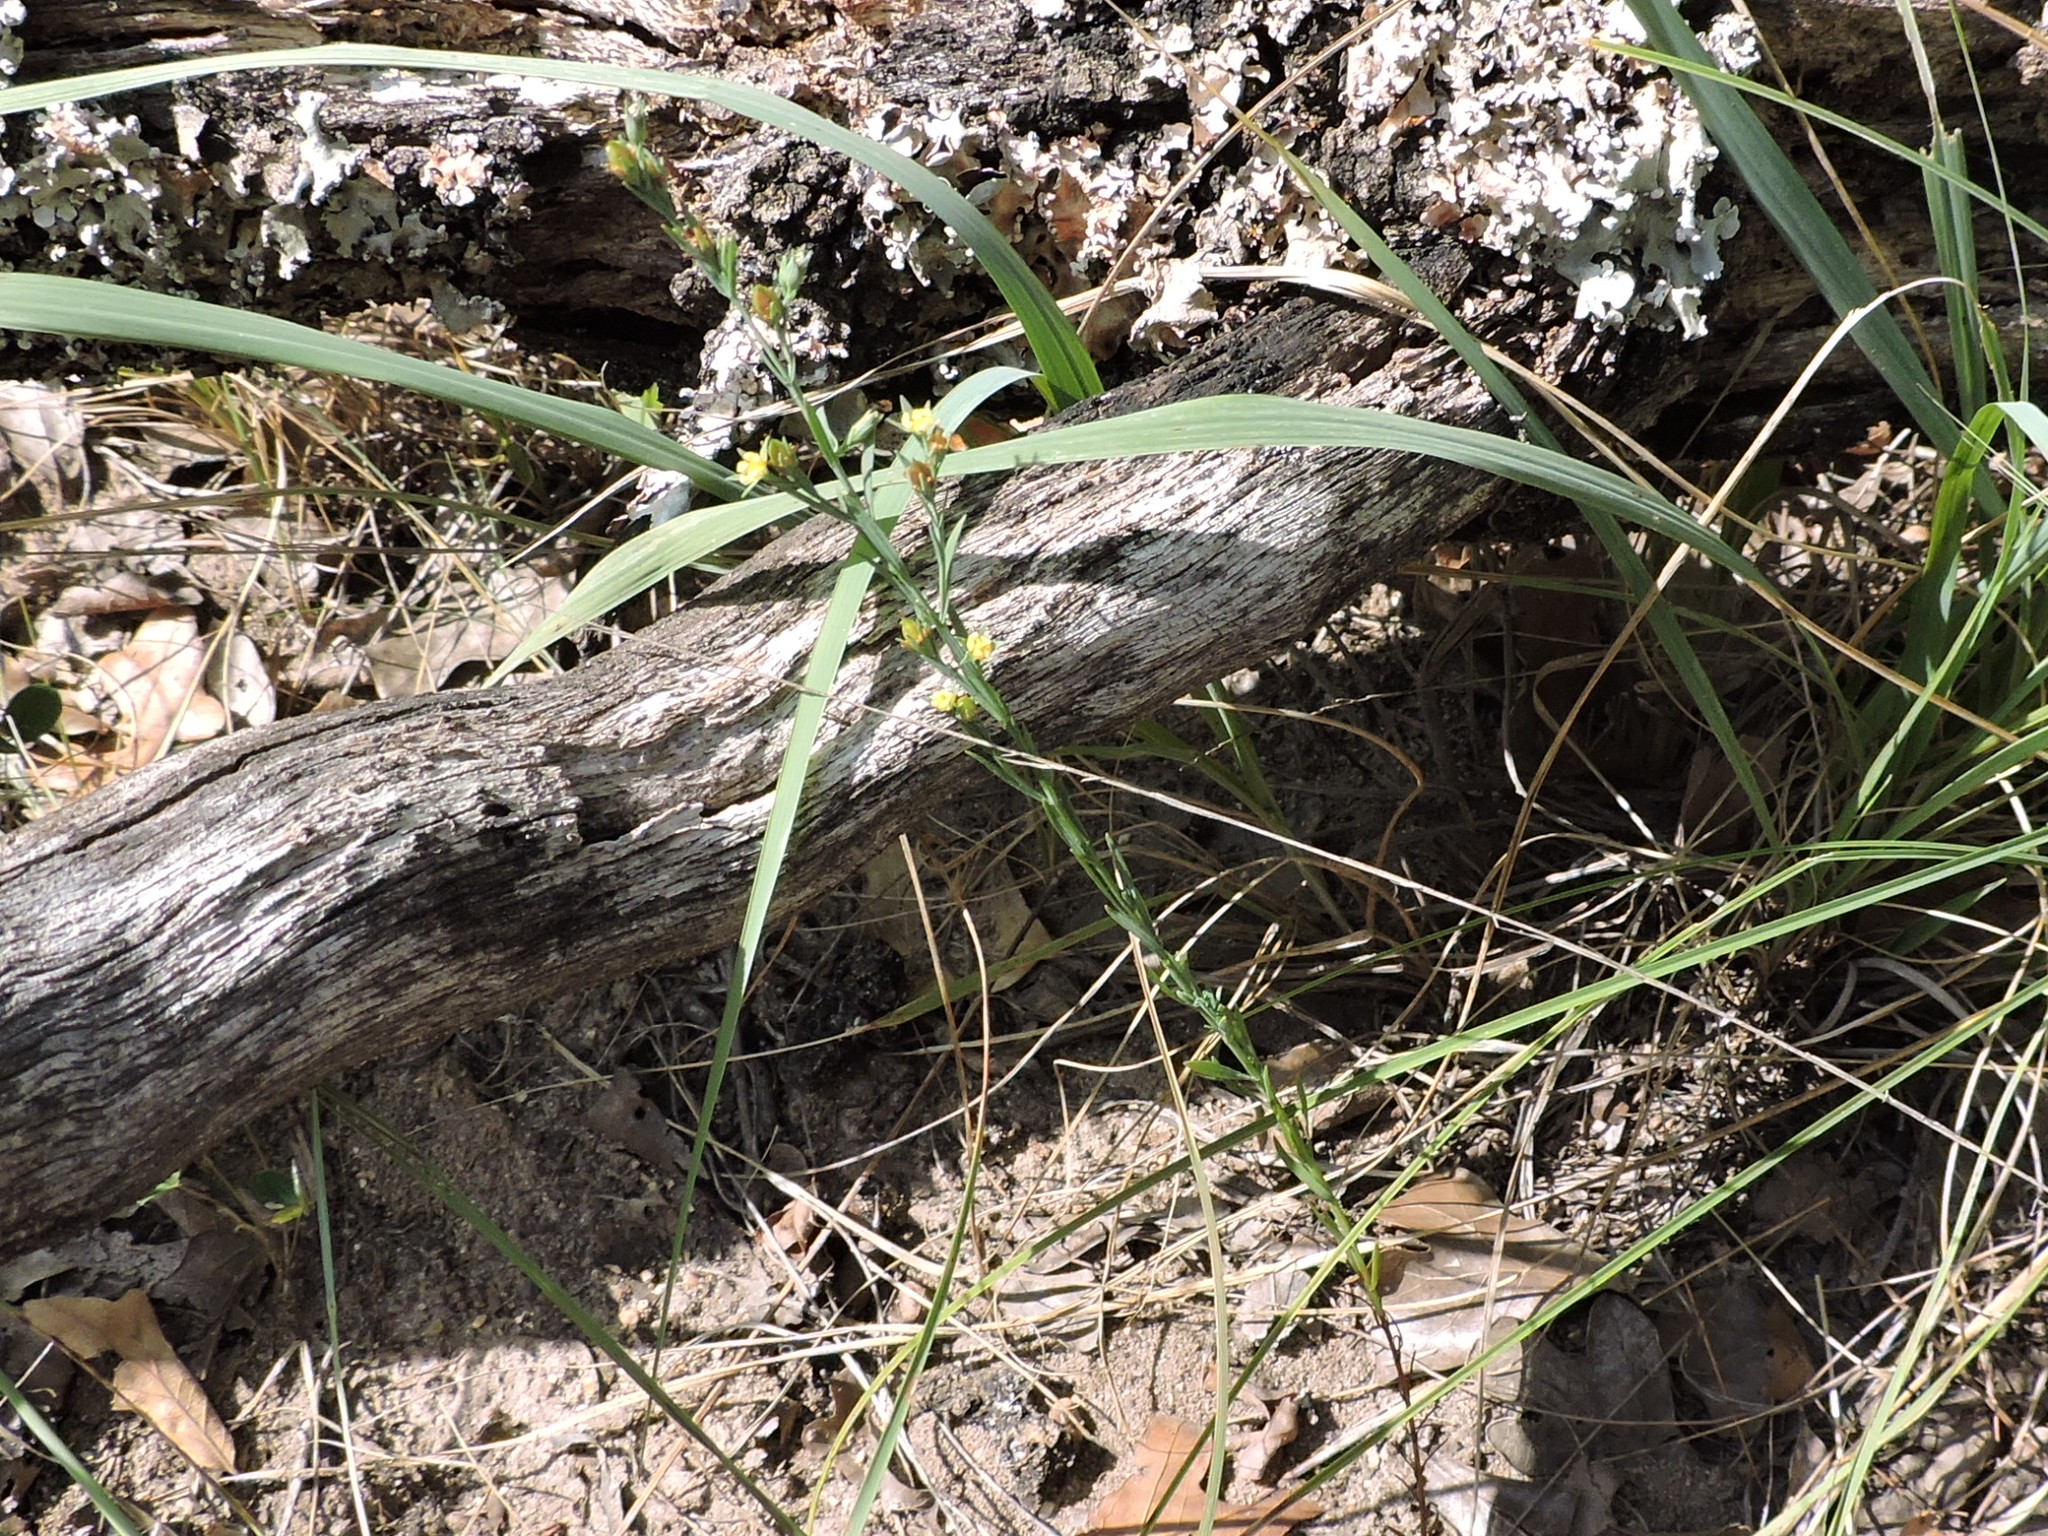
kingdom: Plantae
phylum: Tracheophyta
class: Magnoliopsida
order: Malpighiales
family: Hypericaceae
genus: Hypericum
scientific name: Hypericum drummondii
